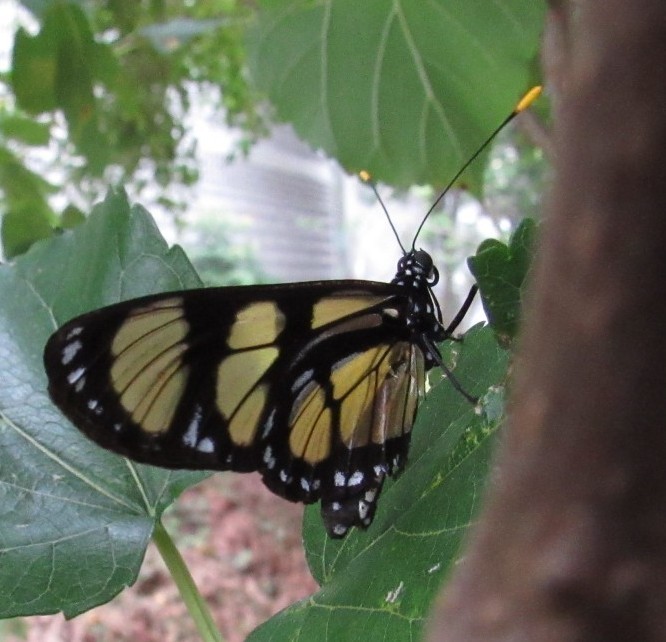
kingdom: Animalia
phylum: Arthropoda
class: Insecta
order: Lepidoptera
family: Nymphalidae
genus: Methona
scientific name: Methona themisto
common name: Themisto amberwing
